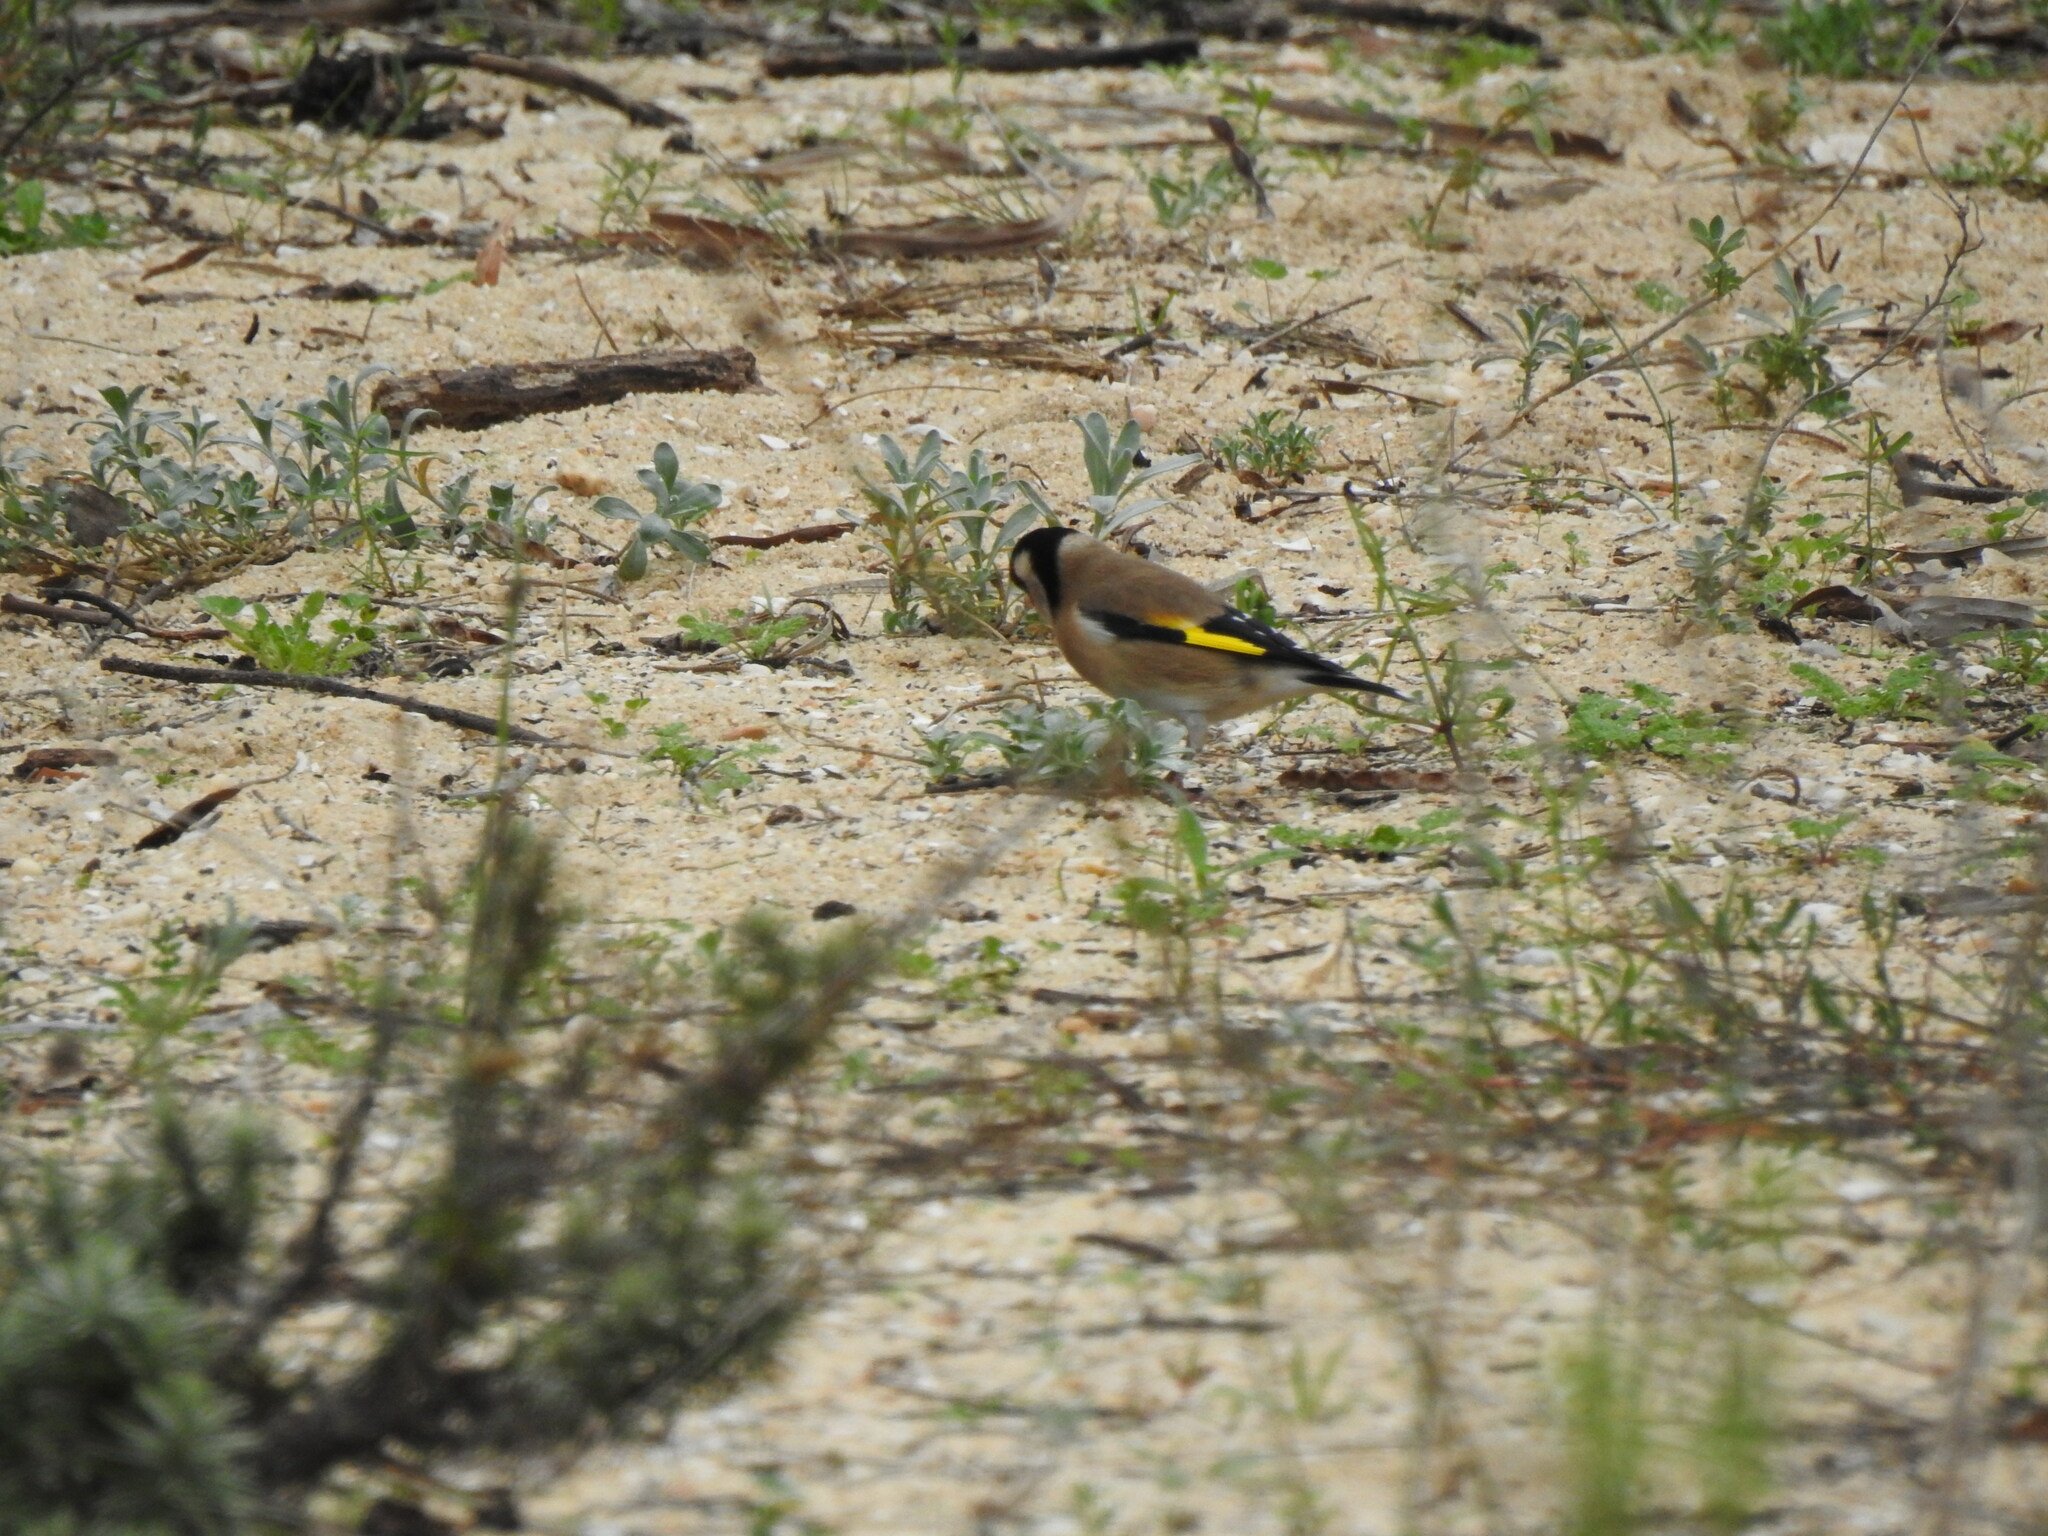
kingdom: Animalia
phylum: Chordata
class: Aves
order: Passeriformes
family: Fringillidae
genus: Carduelis
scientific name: Carduelis carduelis
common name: European goldfinch
